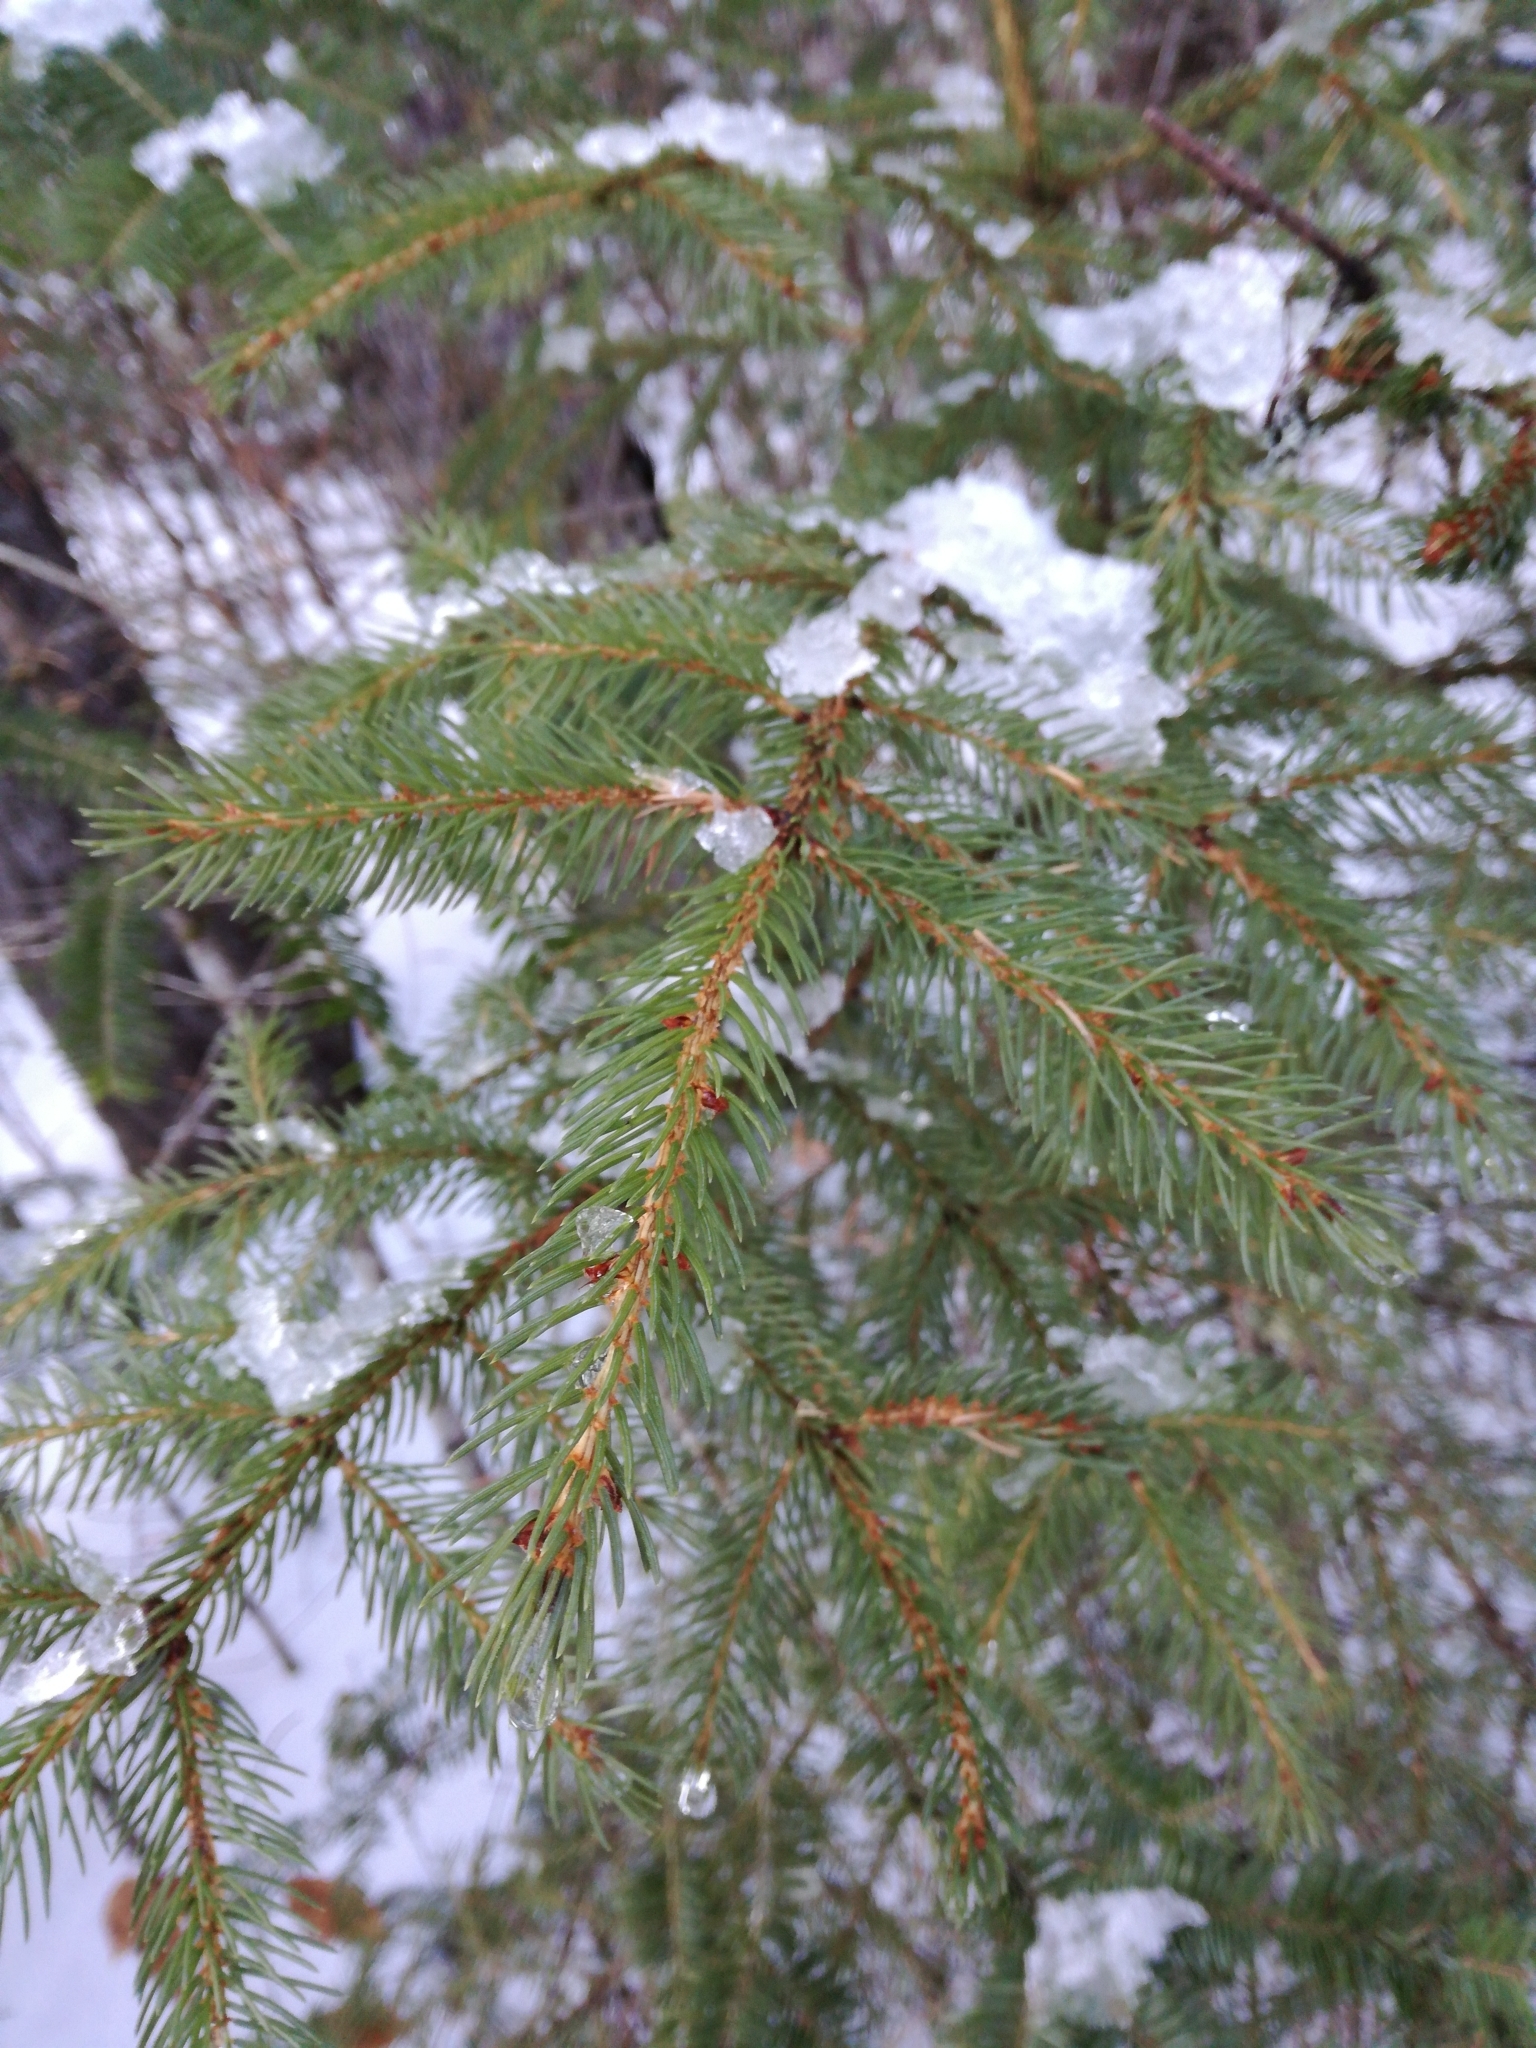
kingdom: Plantae
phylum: Tracheophyta
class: Pinopsida
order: Pinales
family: Pinaceae
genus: Picea
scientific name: Picea rubens
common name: Red spruce
